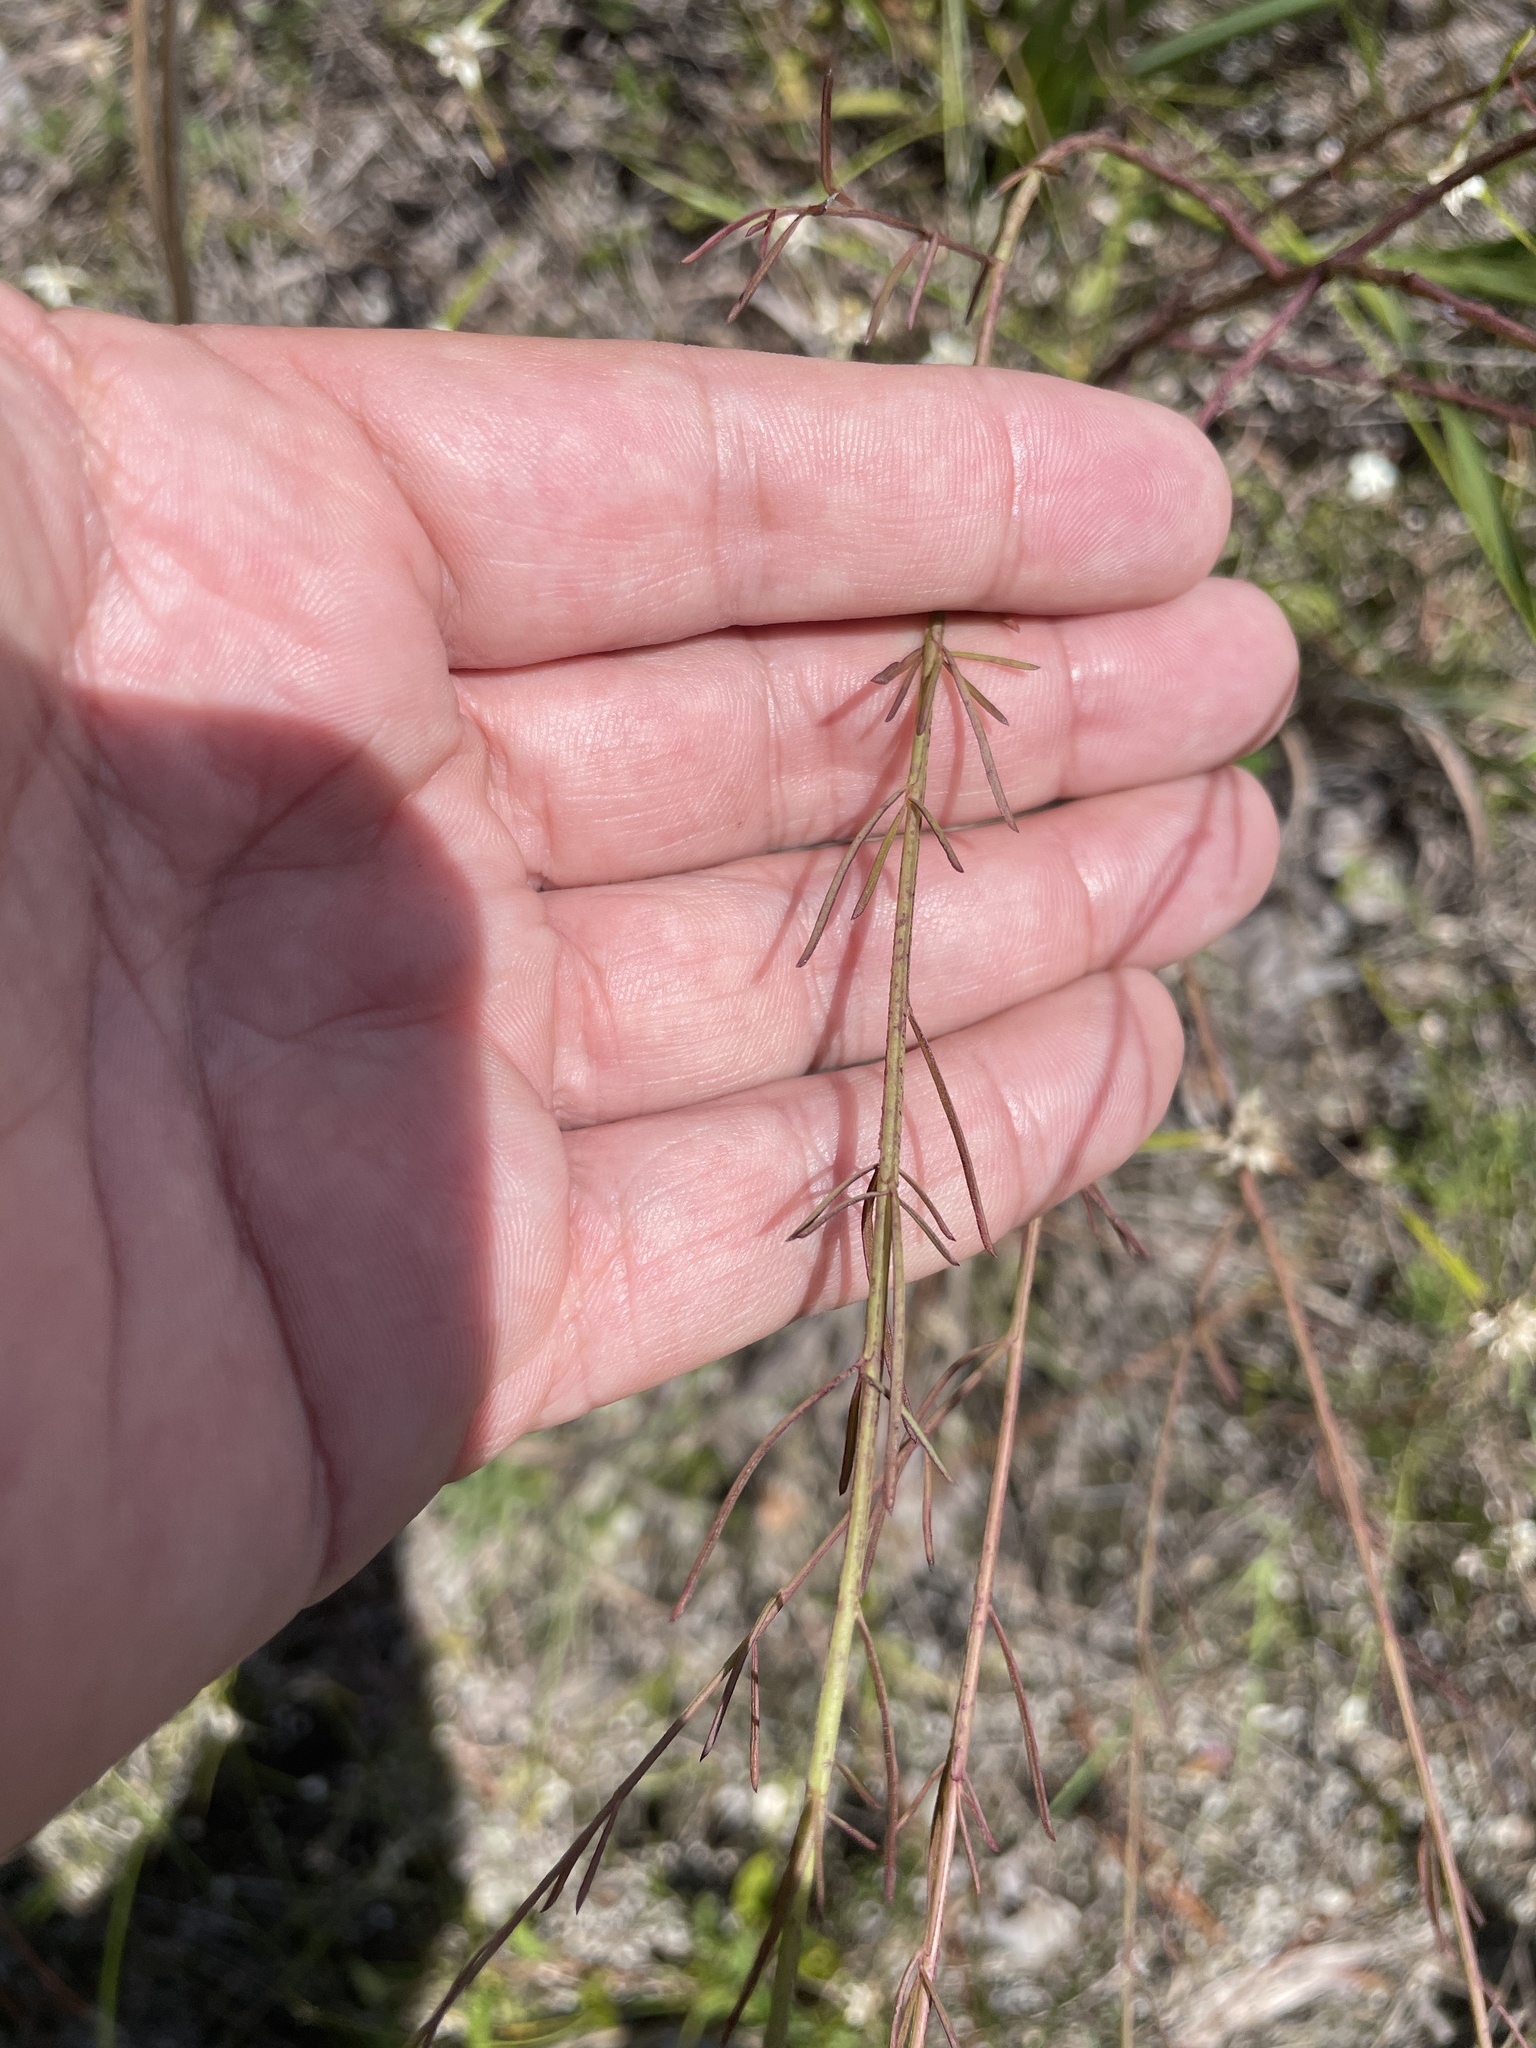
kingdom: Plantae
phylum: Tracheophyta
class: Magnoliopsida
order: Lamiales
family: Orobanchaceae
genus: Agalinis
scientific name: Agalinis purpurea
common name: Purple false foxglove
